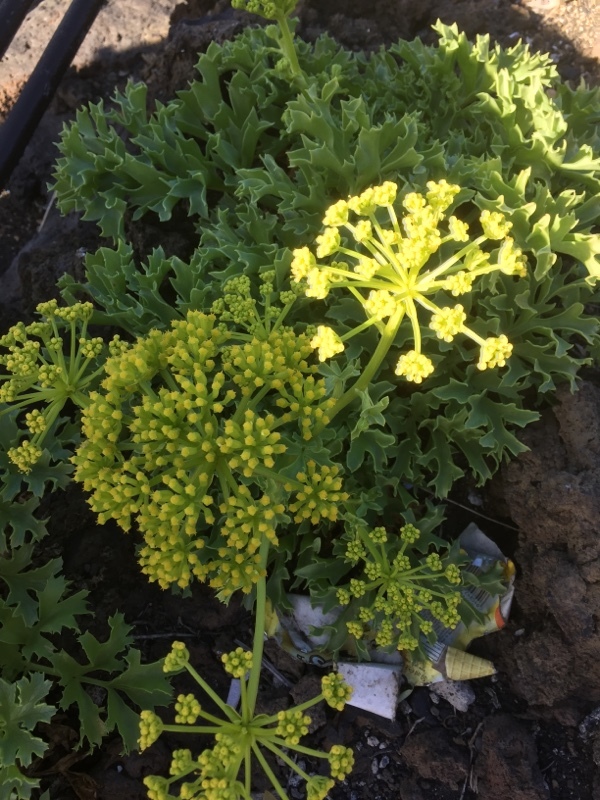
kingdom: Plantae
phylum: Tracheophyta
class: Magnoliopsida
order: Apiales
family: Apiaceae
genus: Astydamia
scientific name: Astydamia latifolia
